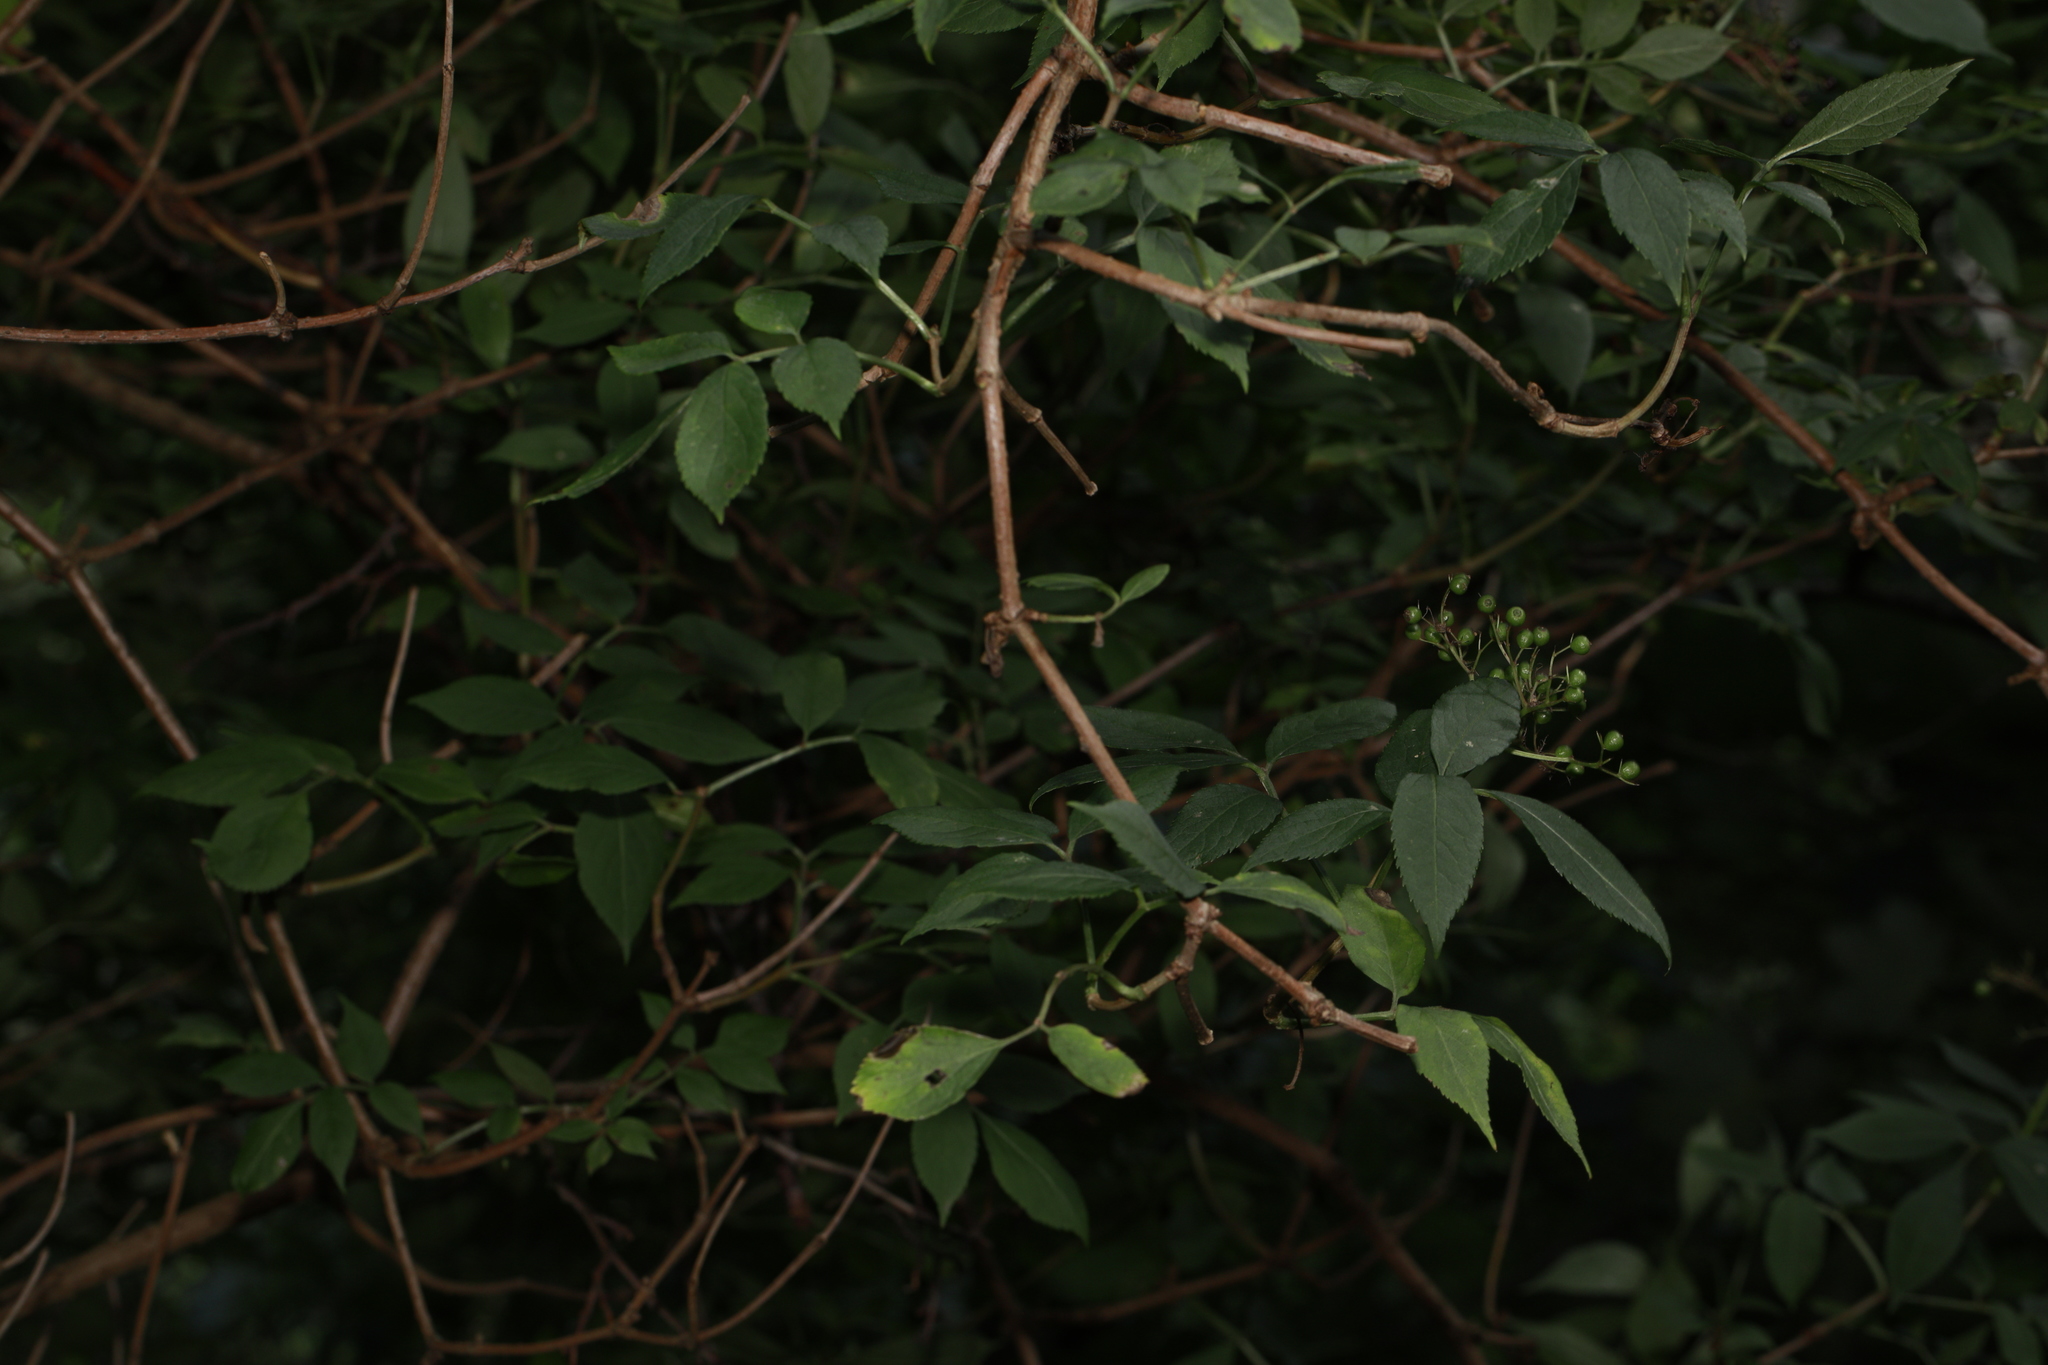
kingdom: Plantae
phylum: Tracheophyta
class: Magnoliopsida
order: Dipsacales
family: Viburnaceae
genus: Sambucus
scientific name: Sambucus nigra
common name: Elder
